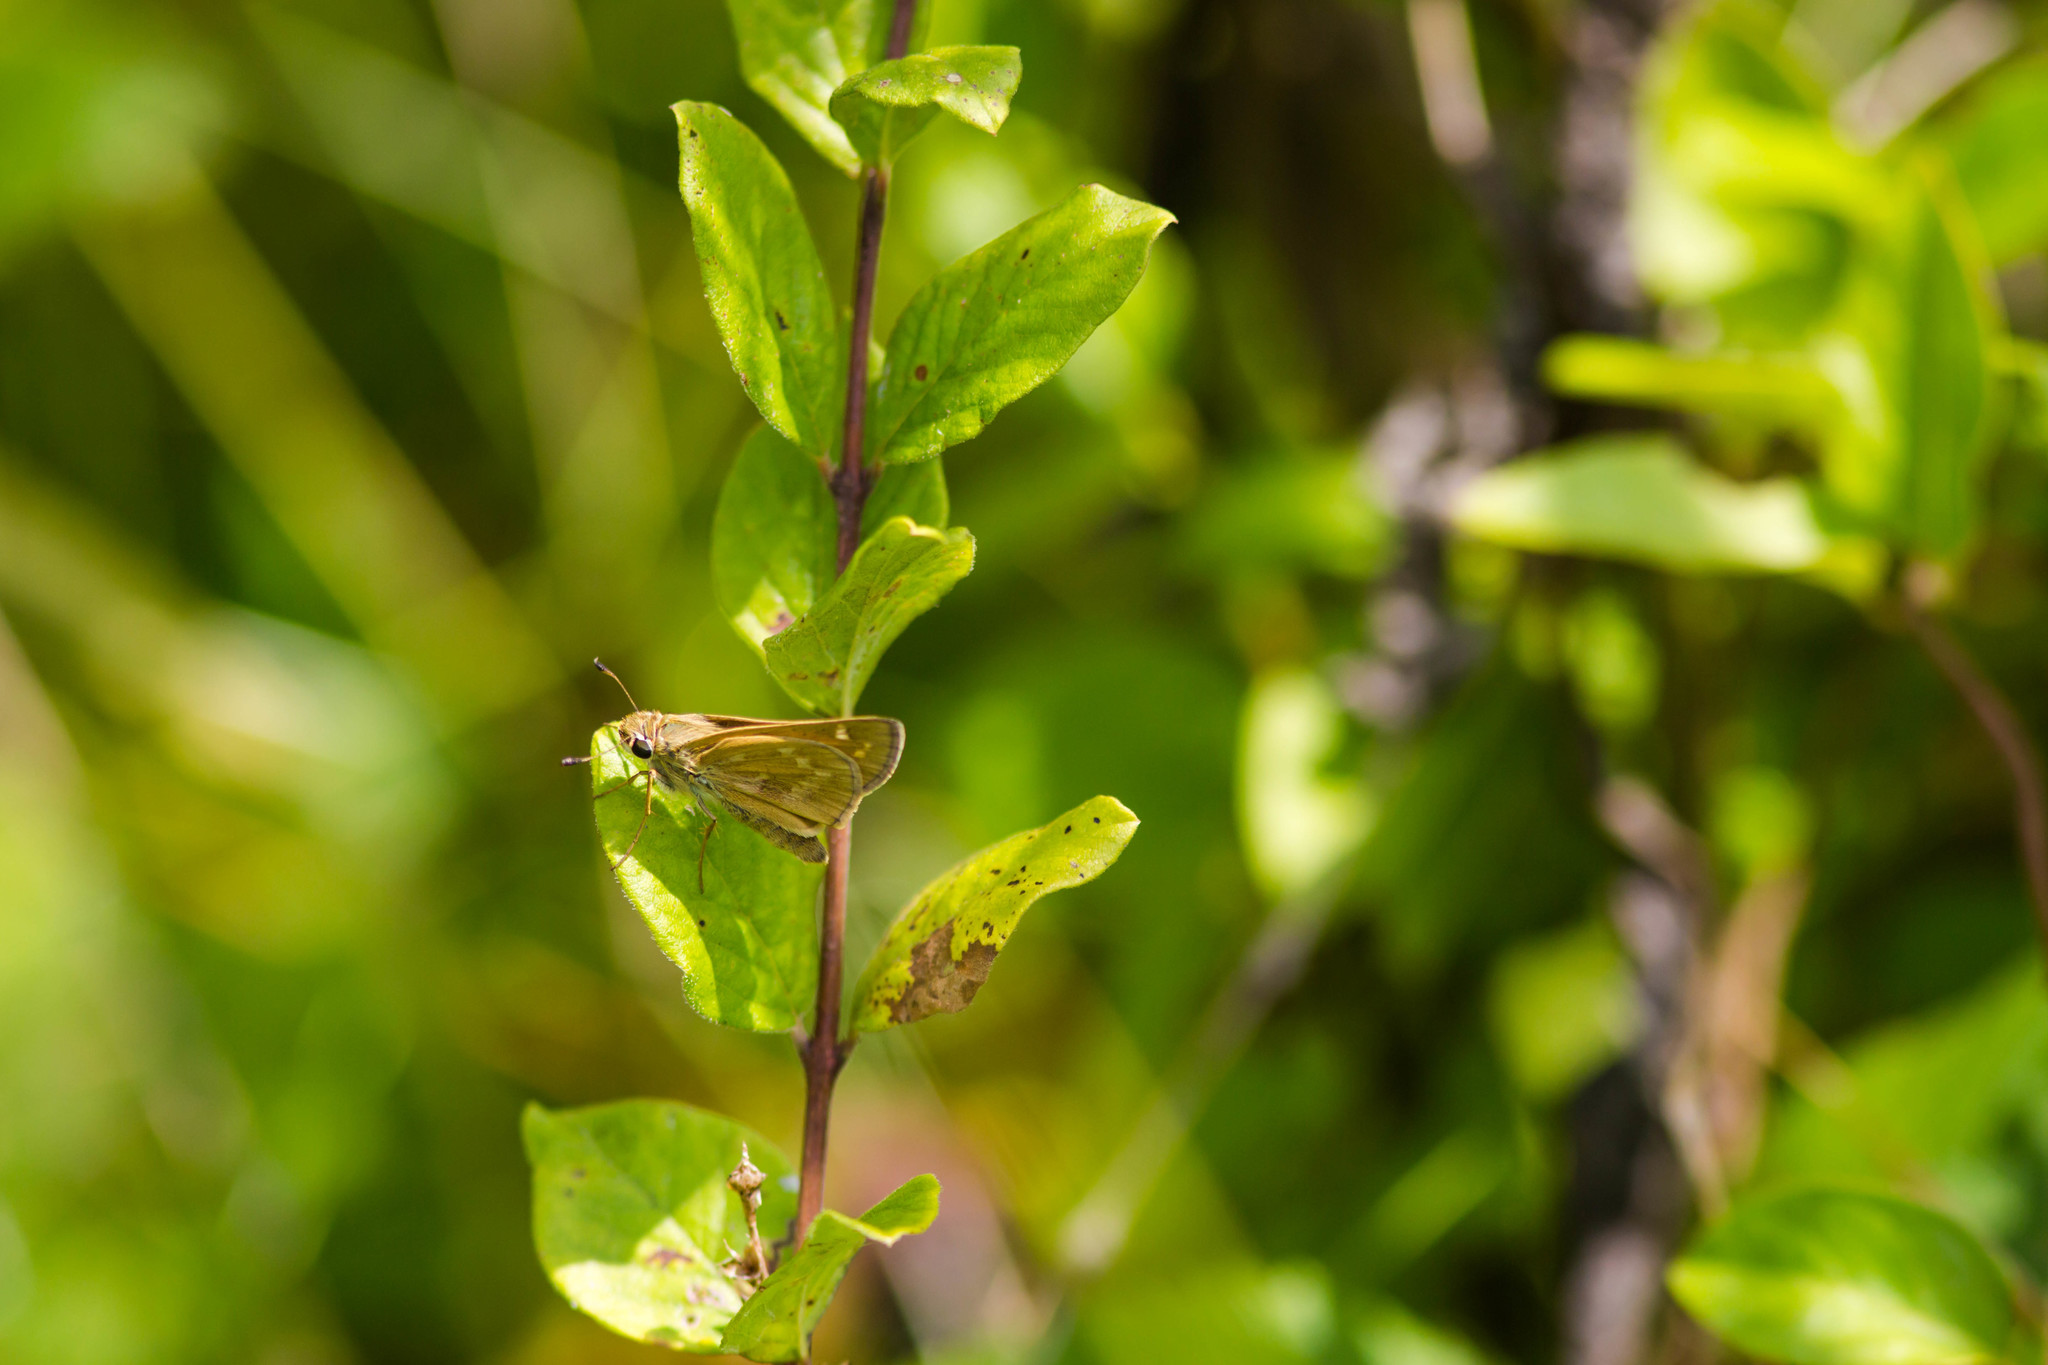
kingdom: Animalia
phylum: Arthropoda
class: Insecta
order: Lepidoptera
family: Hesperiidae
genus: Atalopedes
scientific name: Atalopedes
